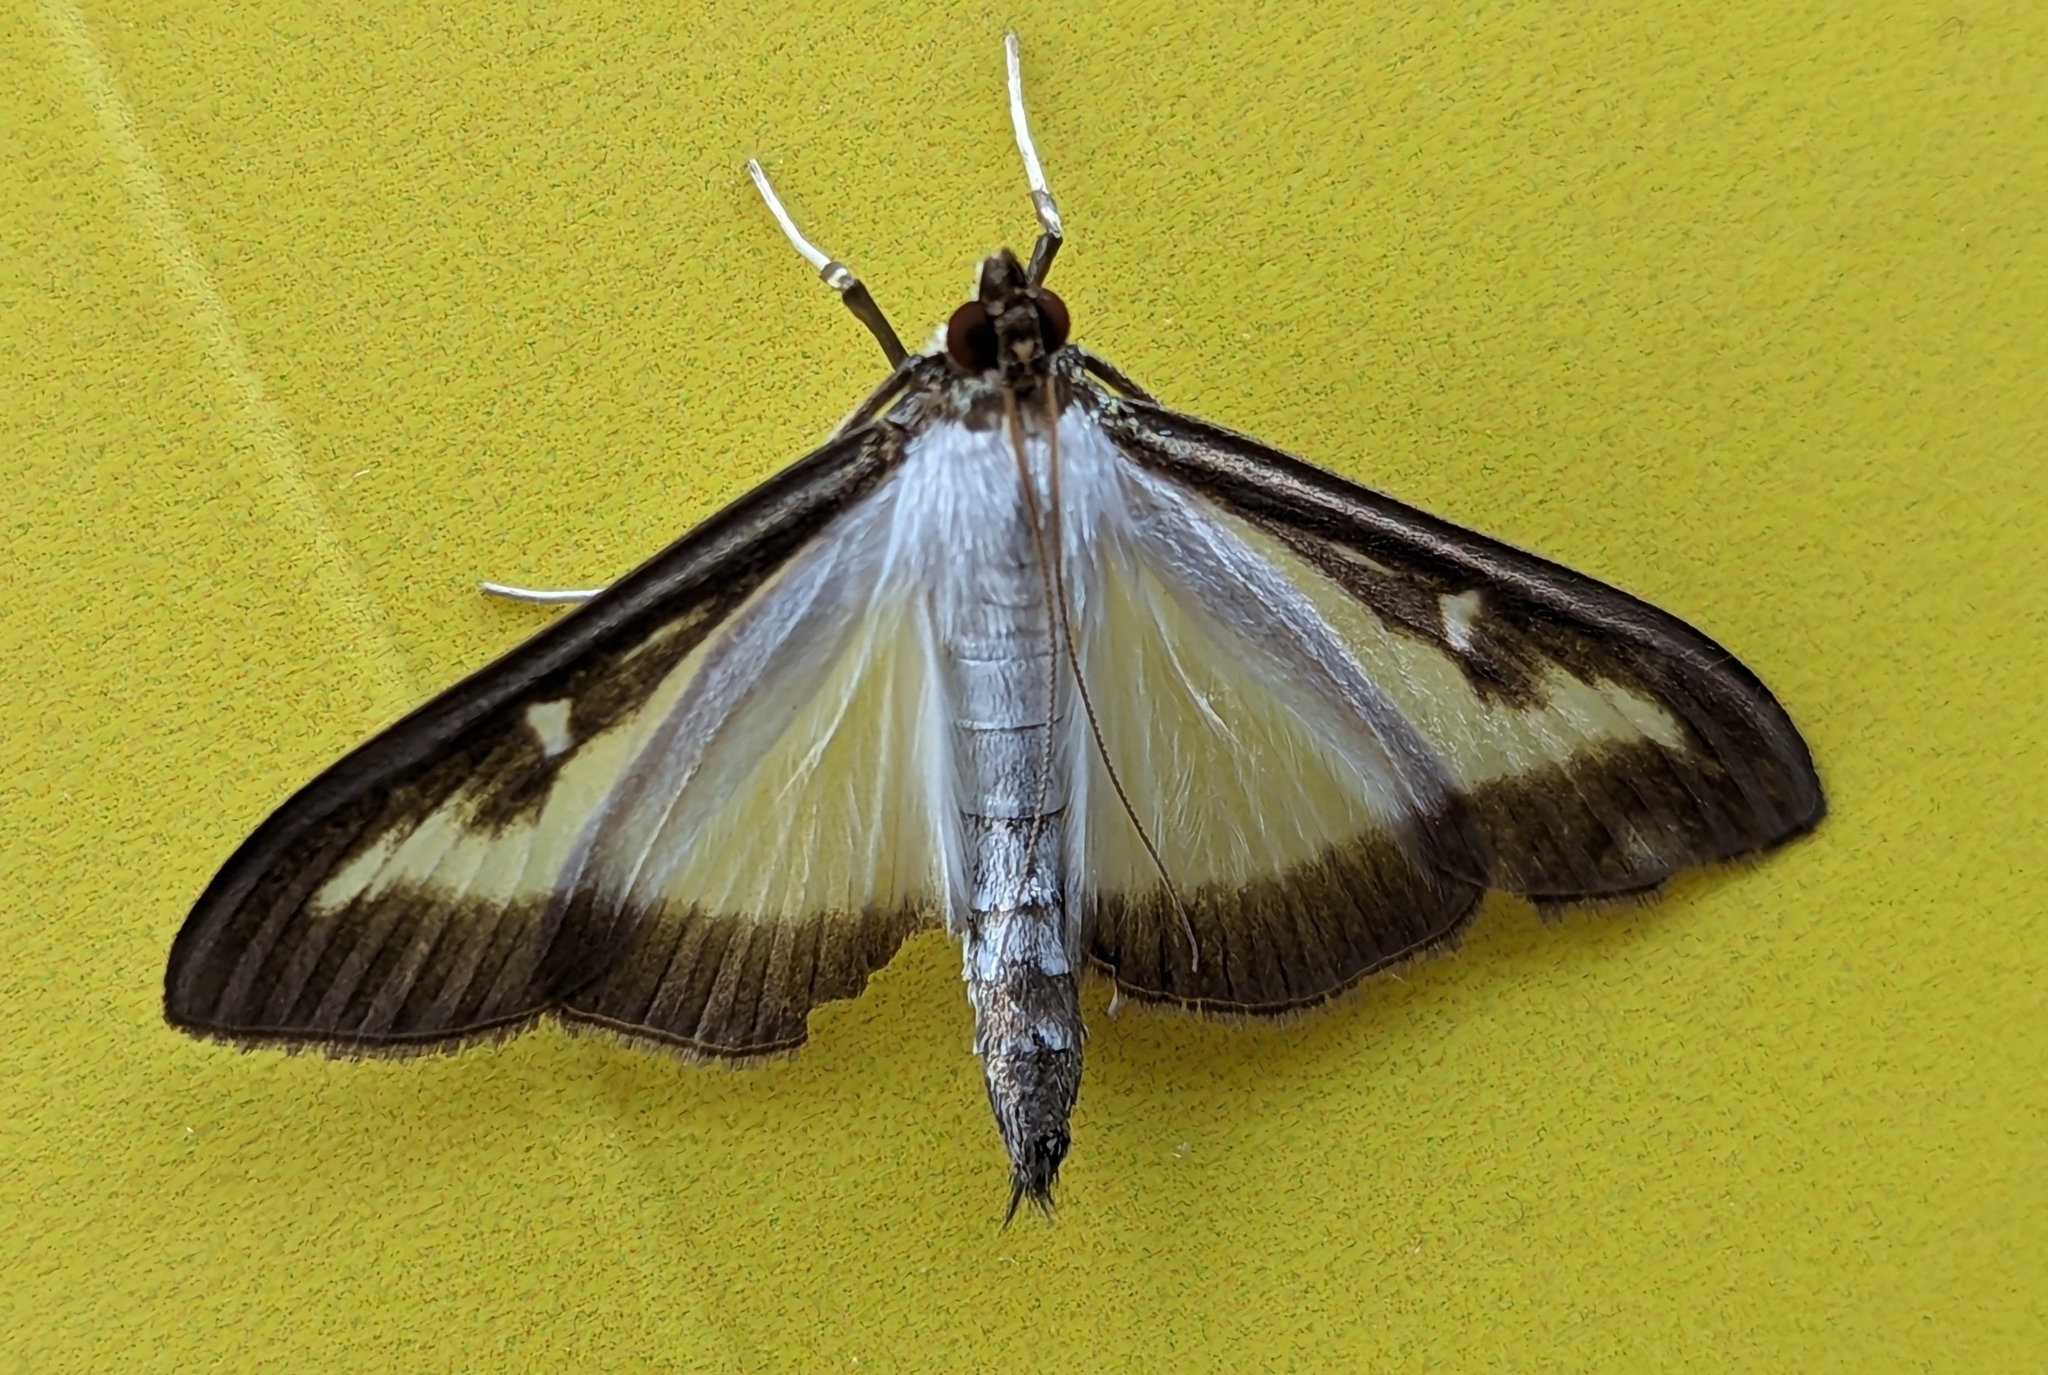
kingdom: Animalia
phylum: Arthropoda
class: Insecta
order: Lepidoptera
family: Crambidae
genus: Cydalima
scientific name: Cydalima perspectalis
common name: Box tree moth
